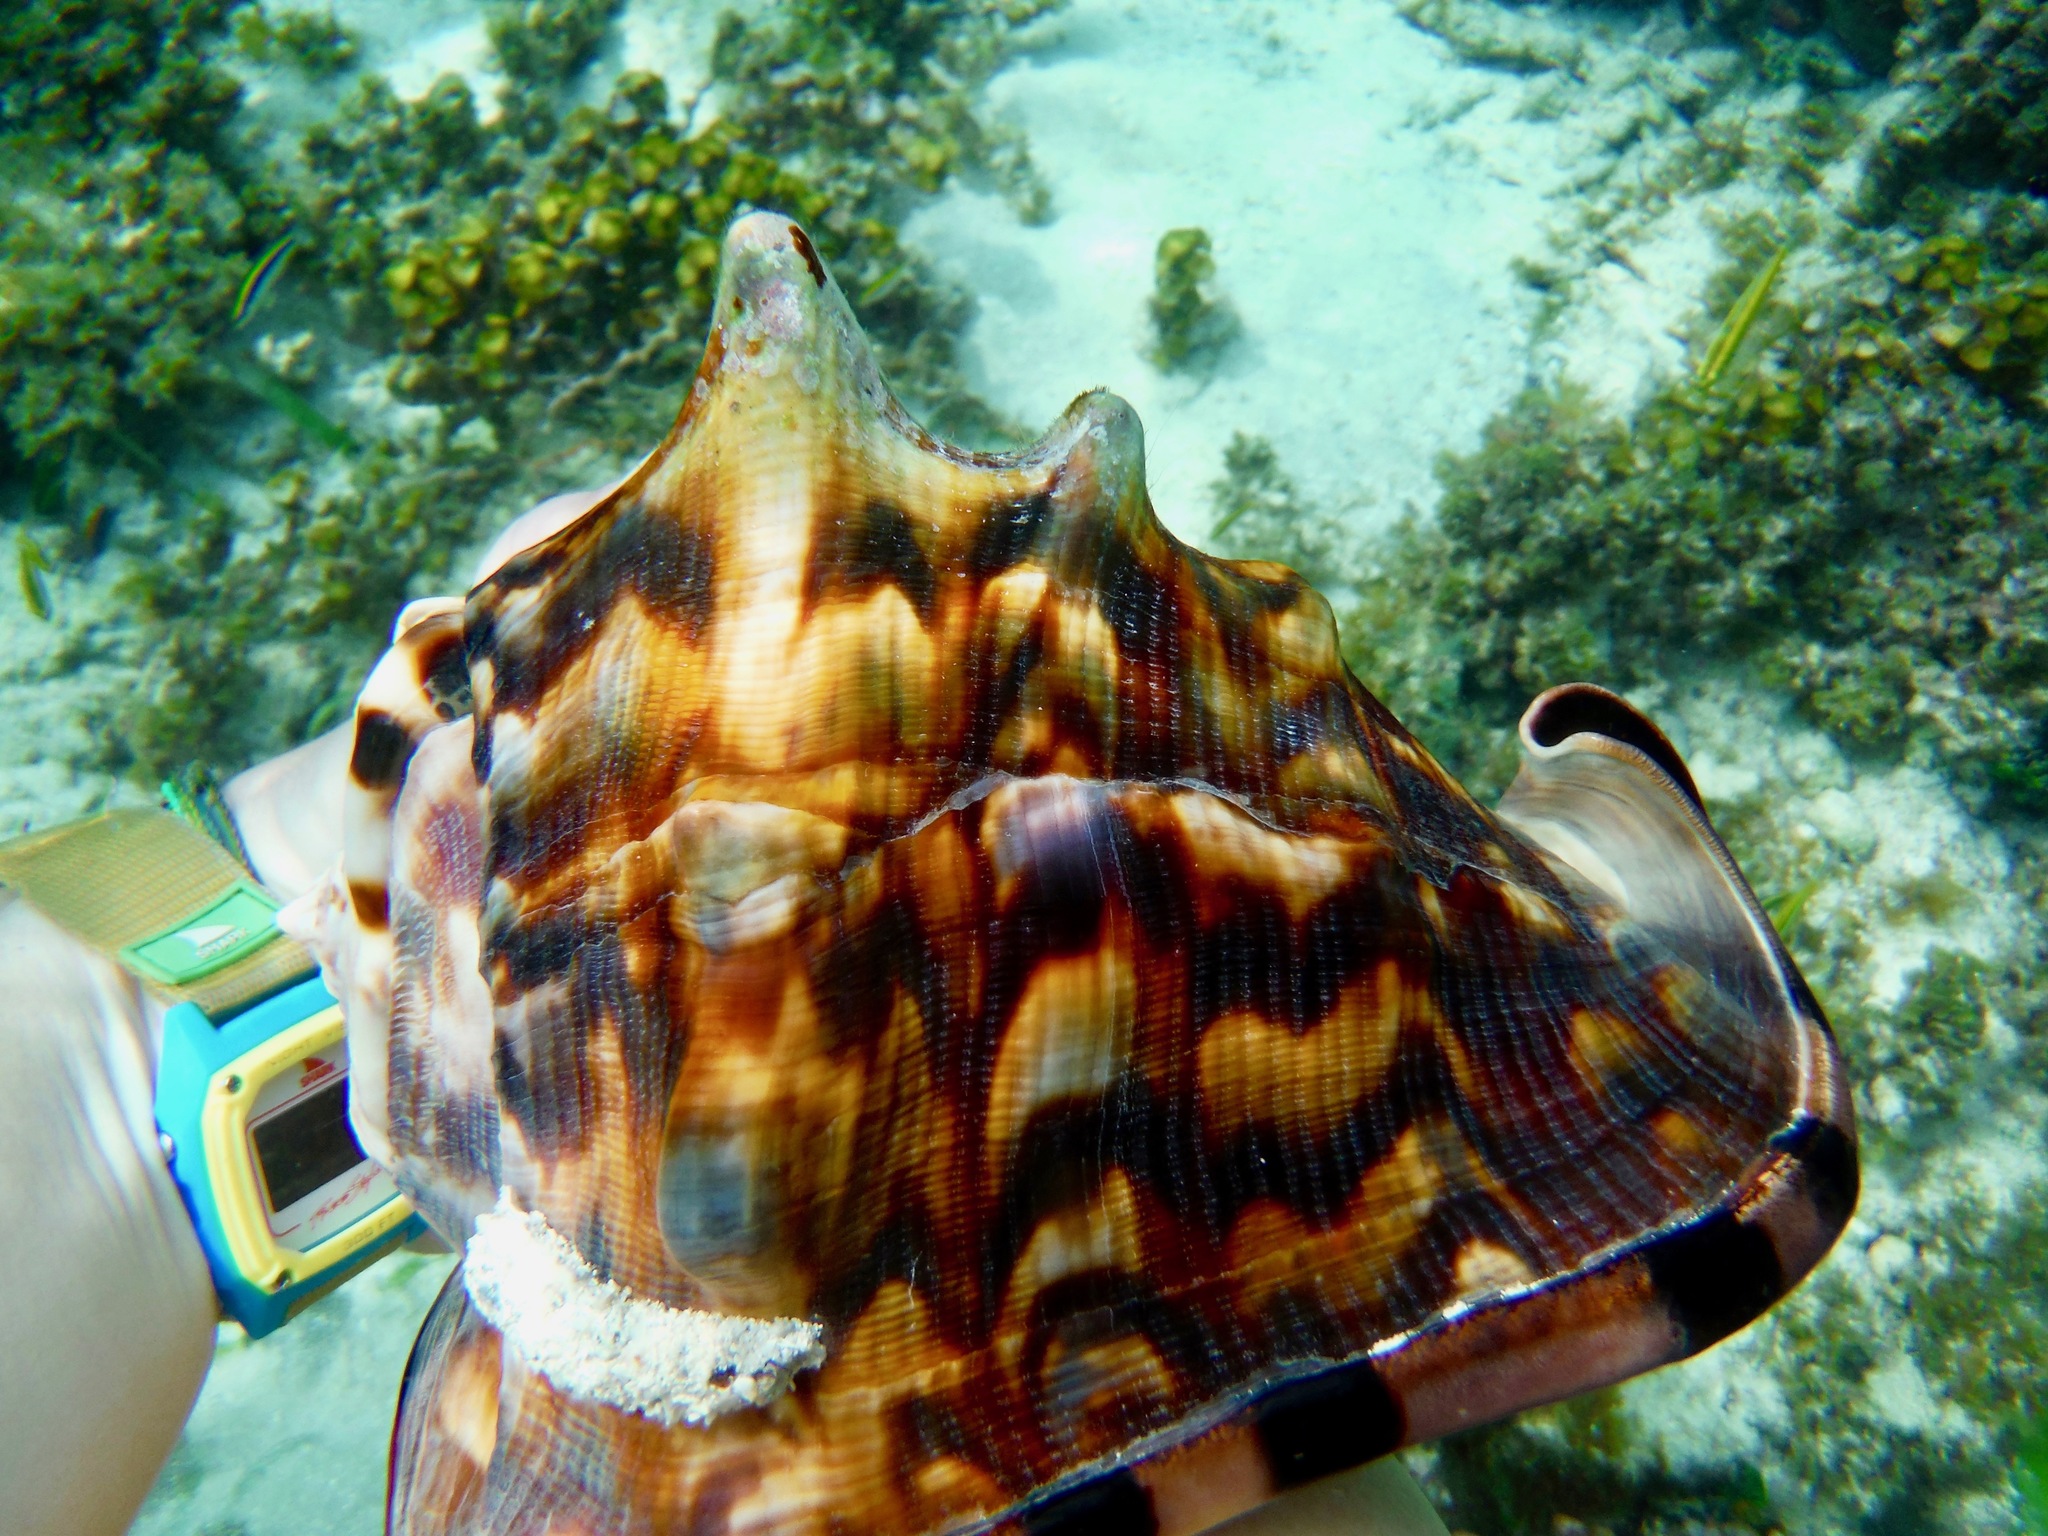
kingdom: Animalia
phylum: Mollusca
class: Gastropoda
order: Littorinimorpha
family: Cassidae
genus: Cassis
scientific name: Cassis tuberosa
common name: Caribbean helmet
